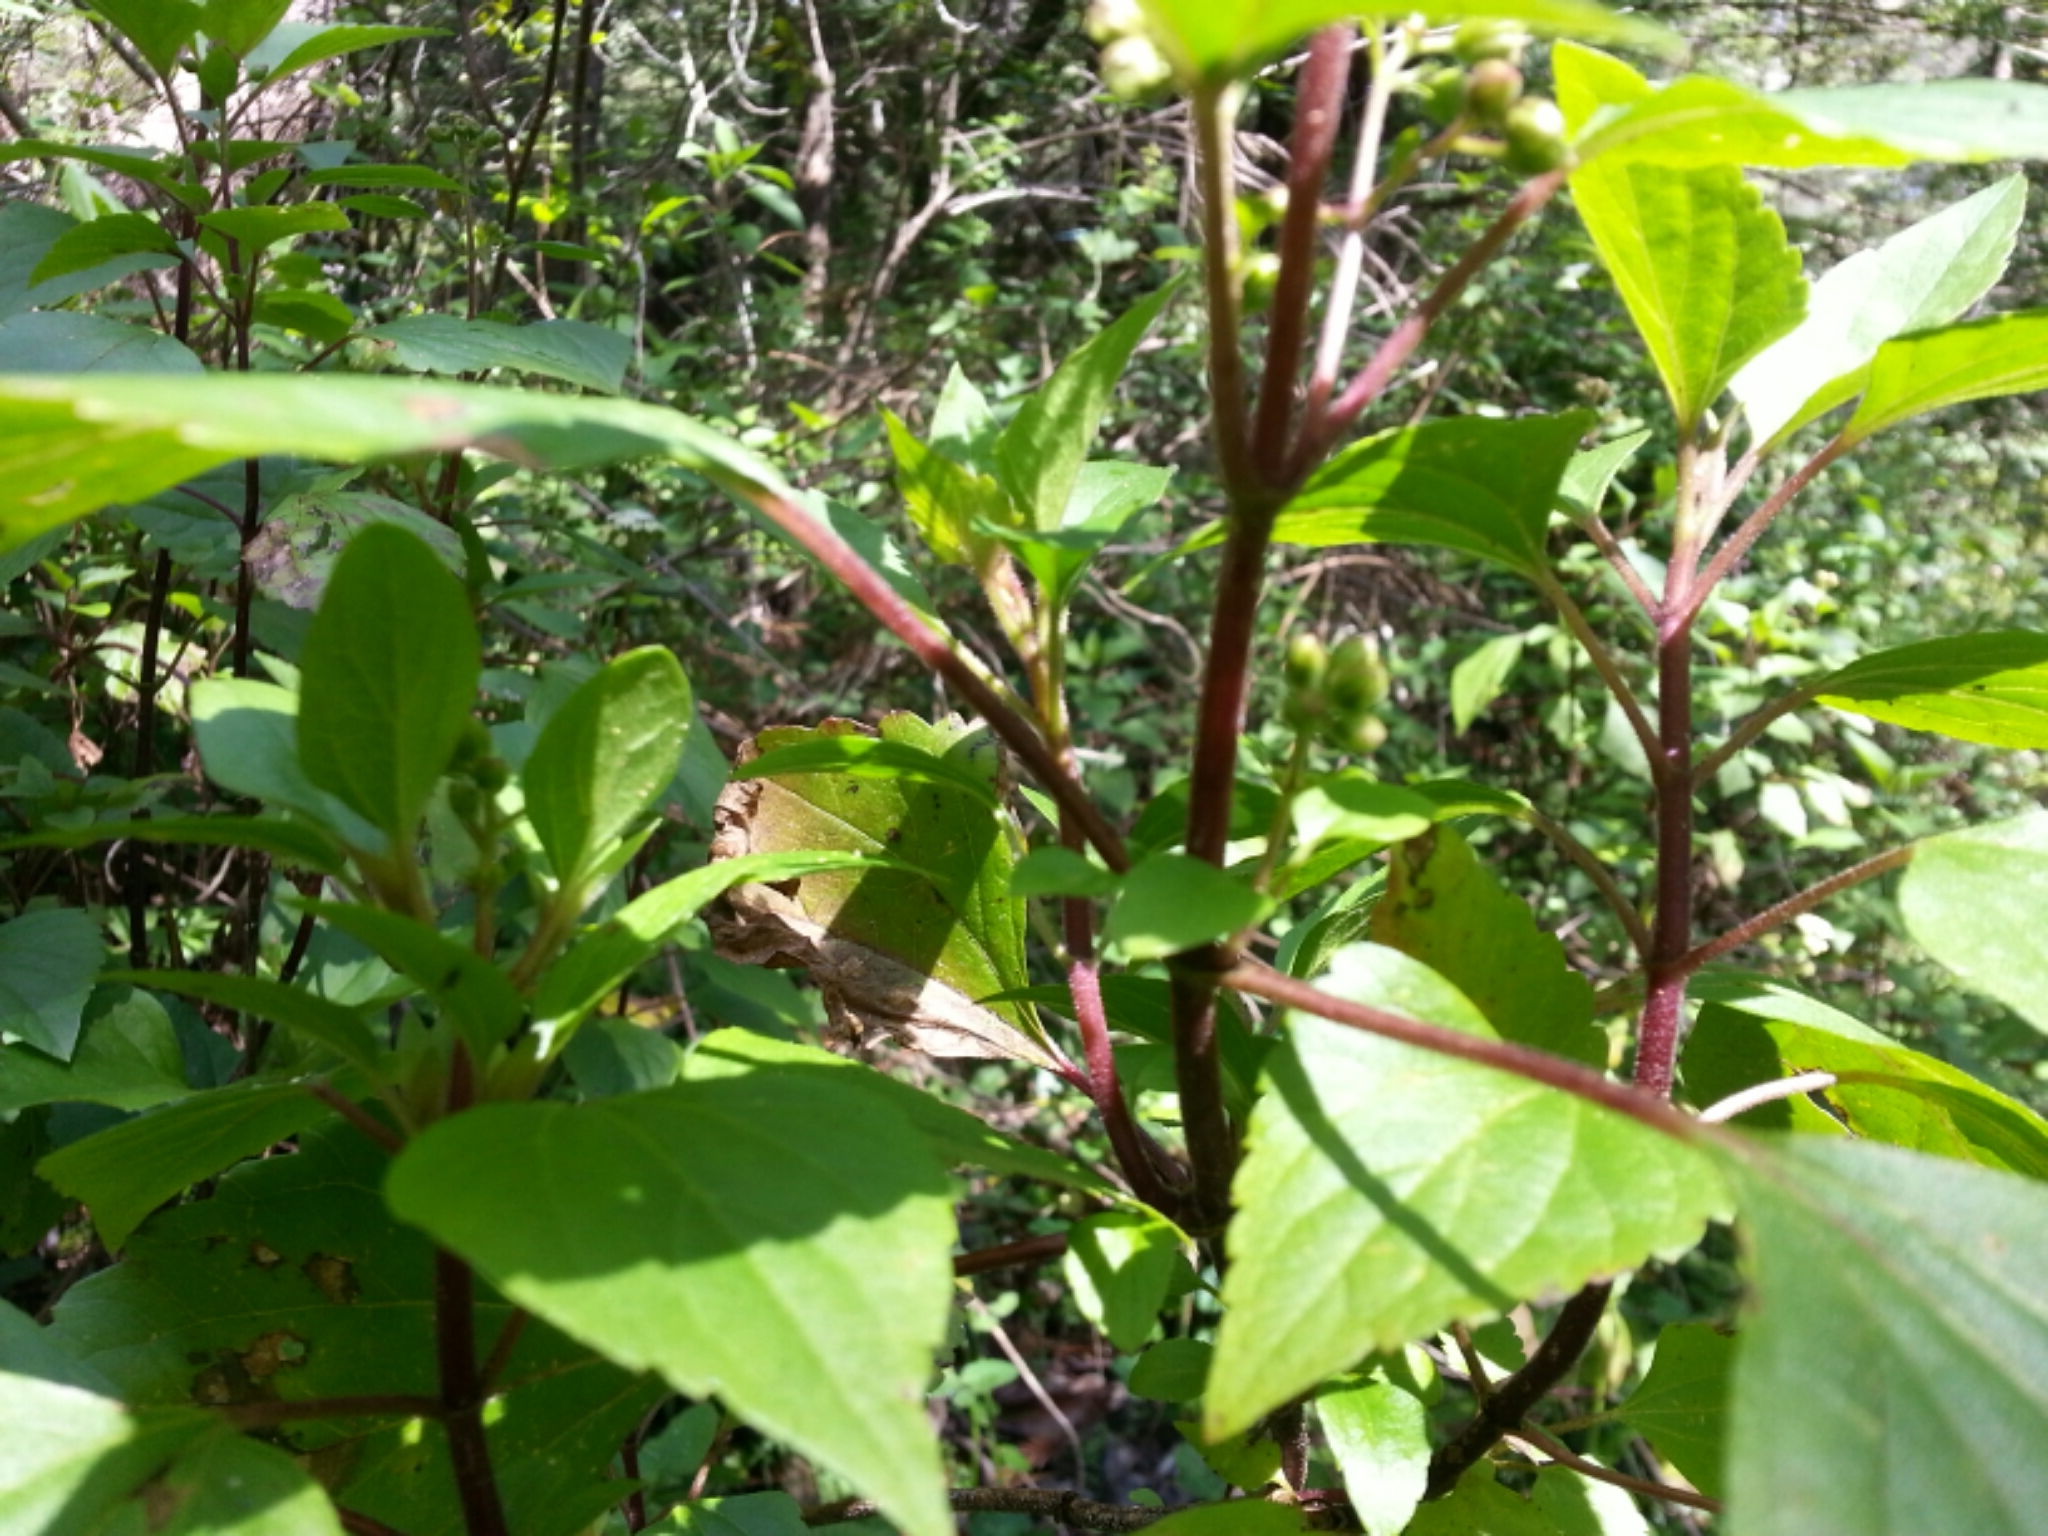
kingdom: Plantae
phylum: Tracheophyta
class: Magnoliopsida
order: Asterales
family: Asteraceae
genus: Ageratina
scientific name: Ageratina adenophora
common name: Sticky snakeroot
